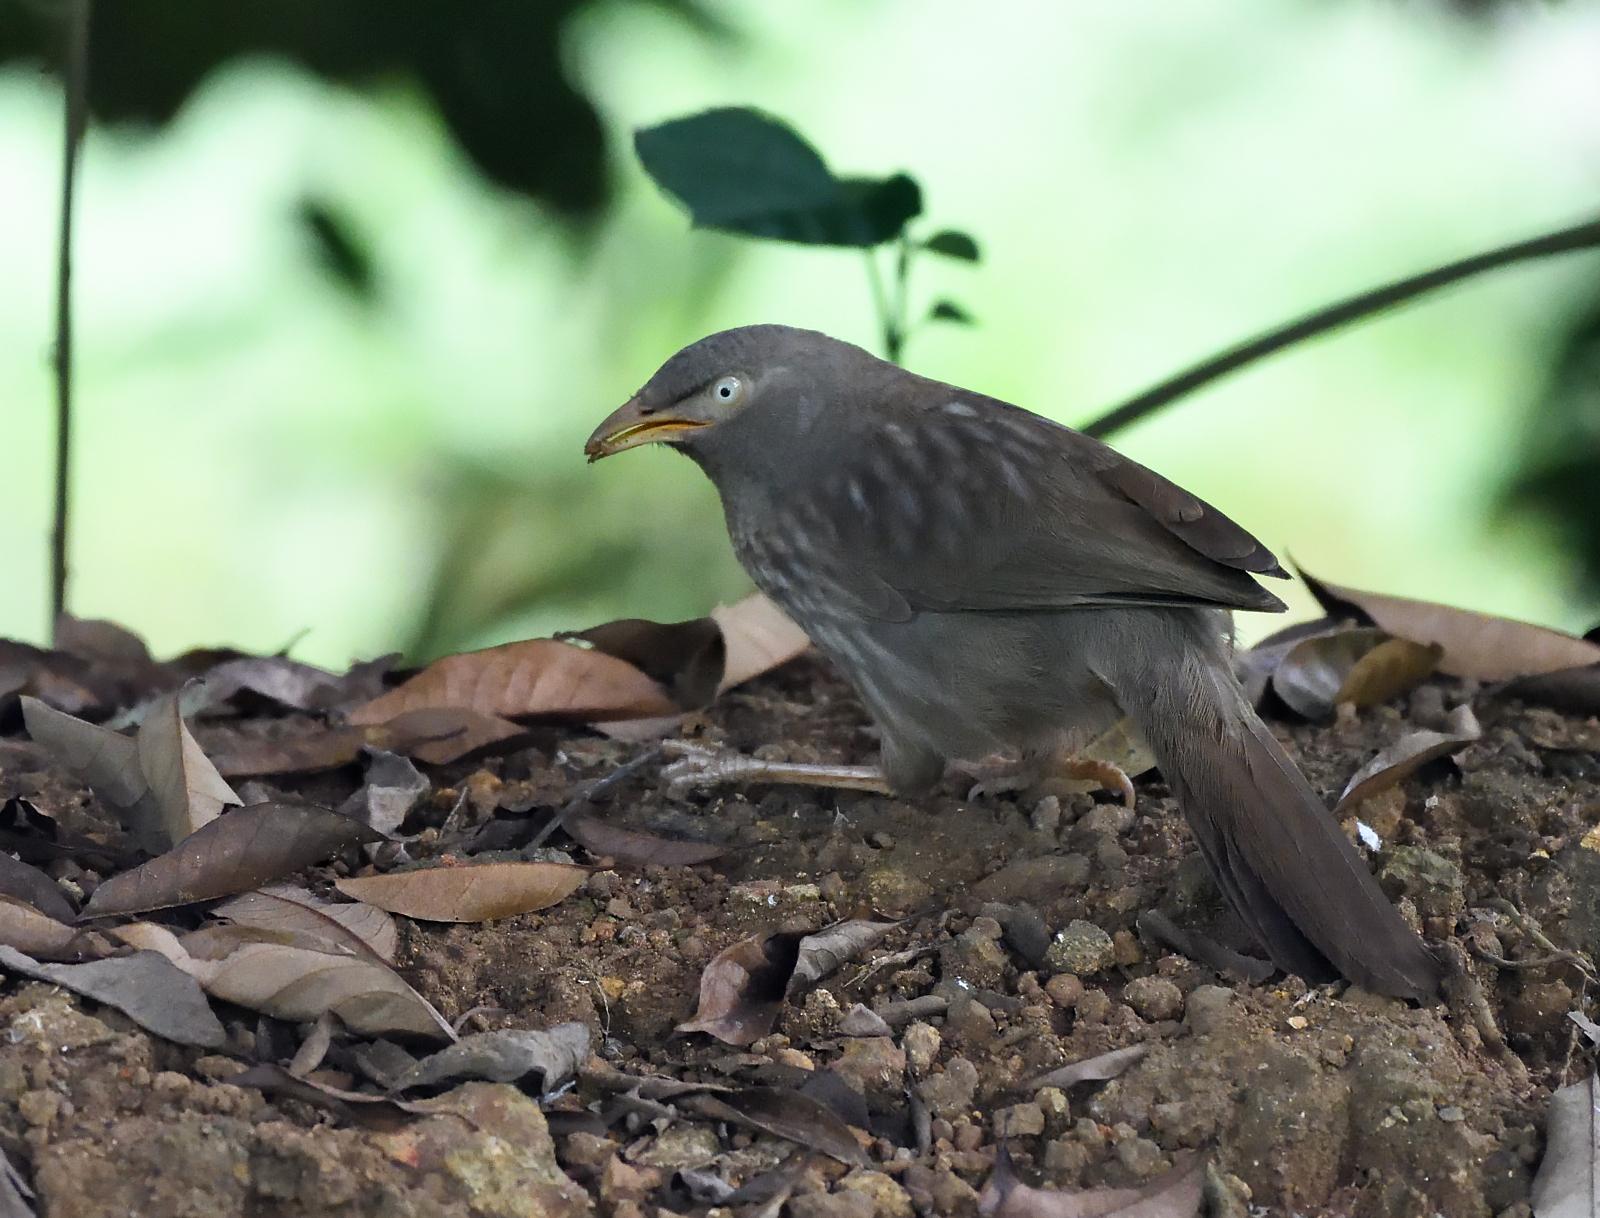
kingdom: Animalia
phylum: Chordata
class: Aves
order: Passeriformes
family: Leiothrichidae
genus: Turdoides
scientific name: Turdoides striata
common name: Jungle babbler
